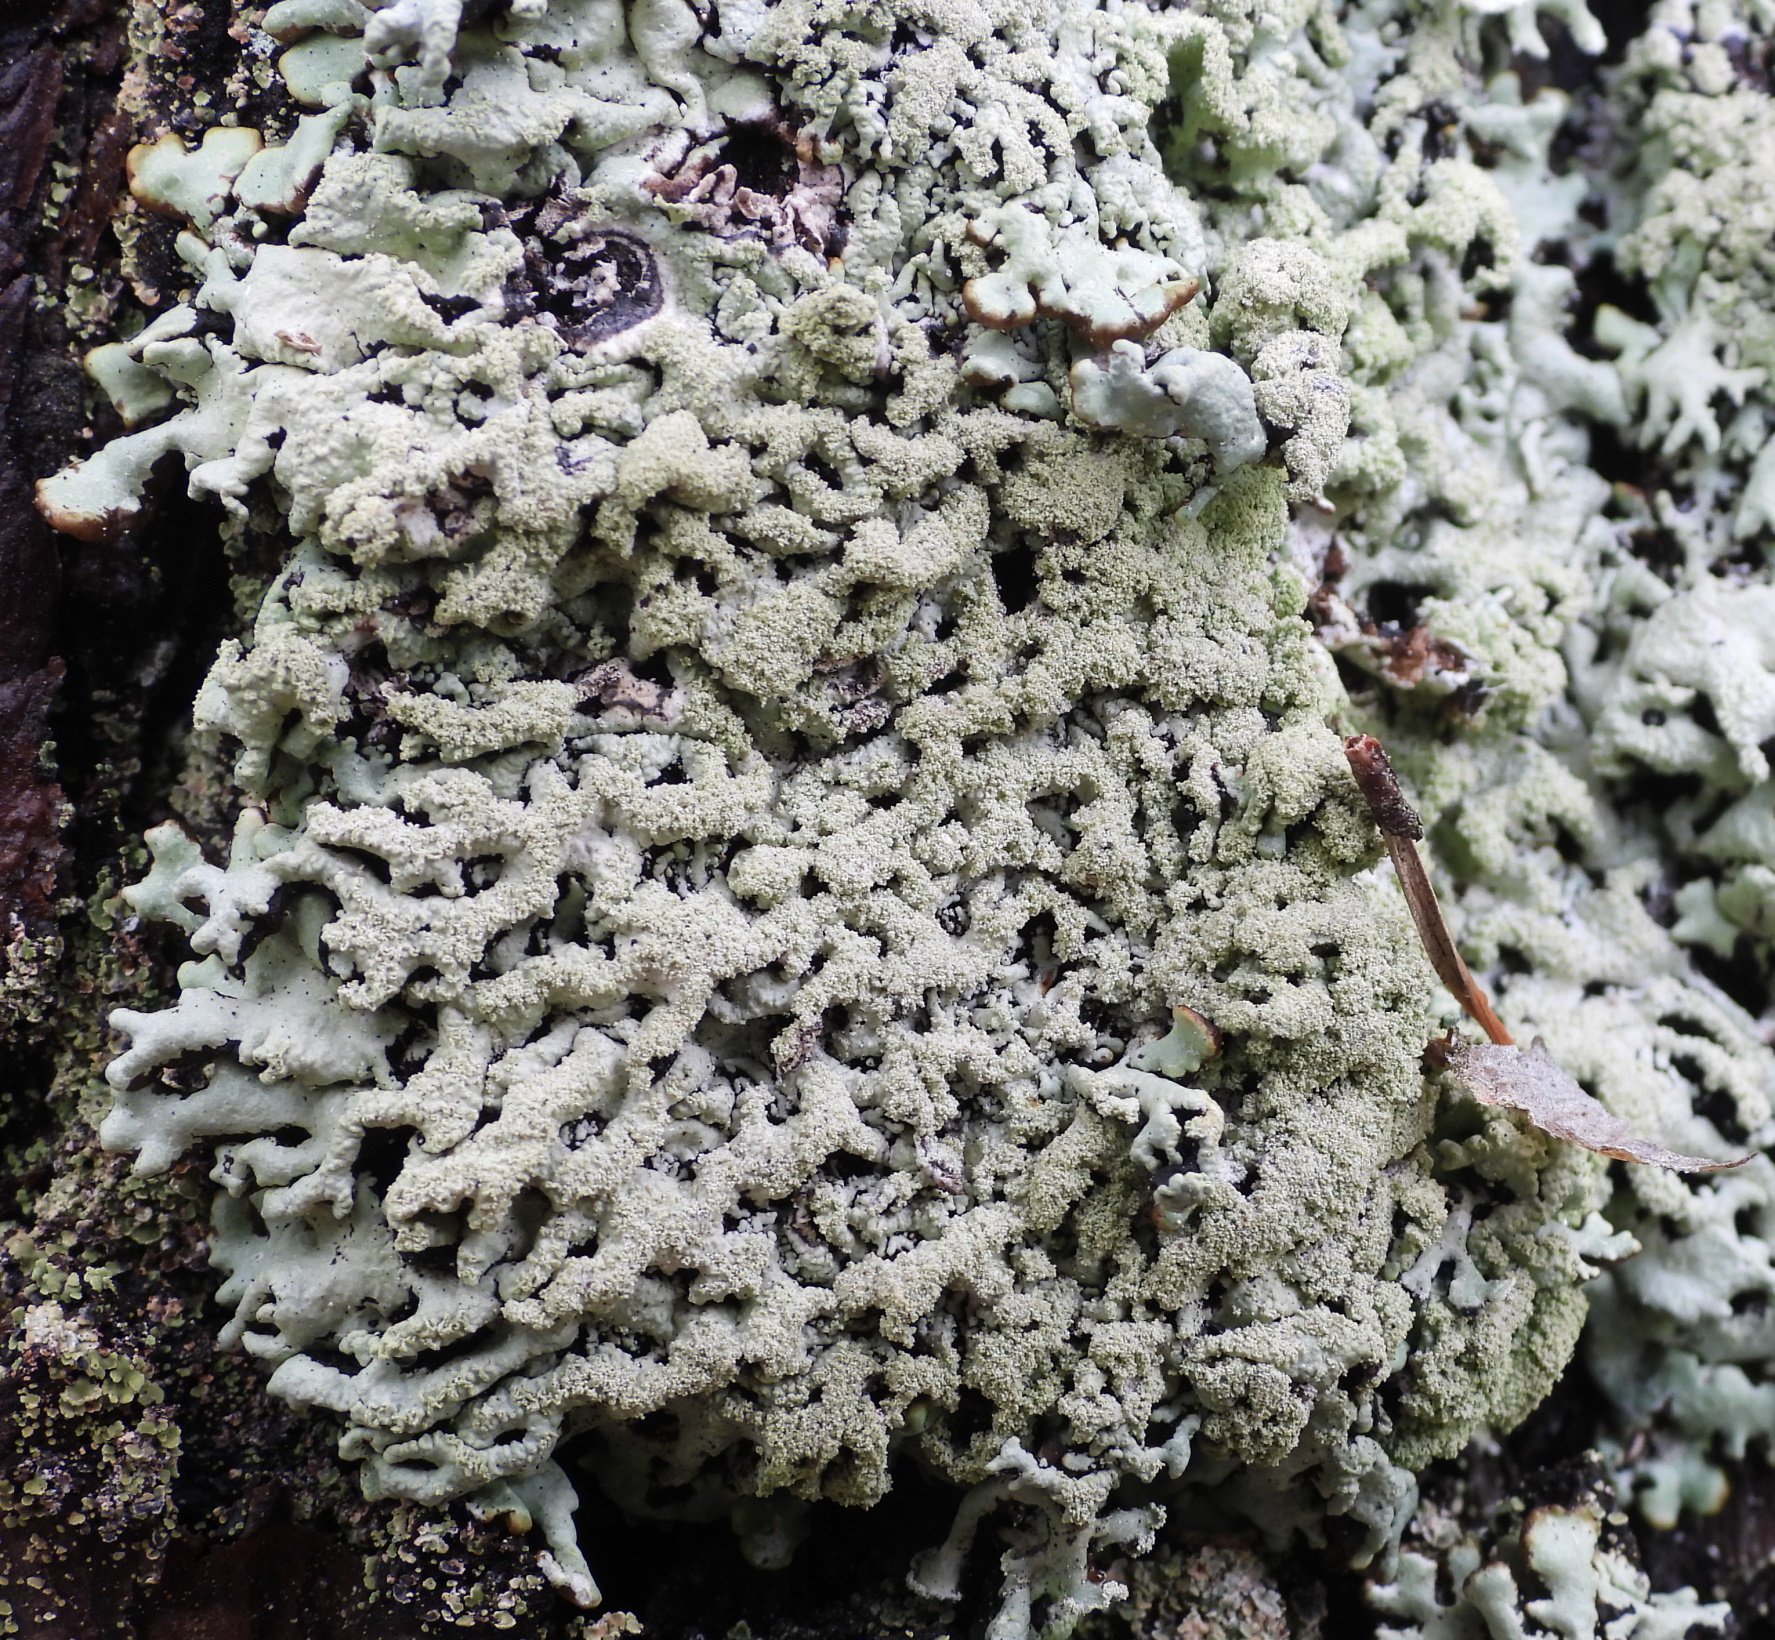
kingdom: Fungi
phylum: Ascomycota
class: Lecanoromycetes
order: Lecanorales
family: Parmeliaceae
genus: Hypogymnia
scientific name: Hypogymnia farinacea
